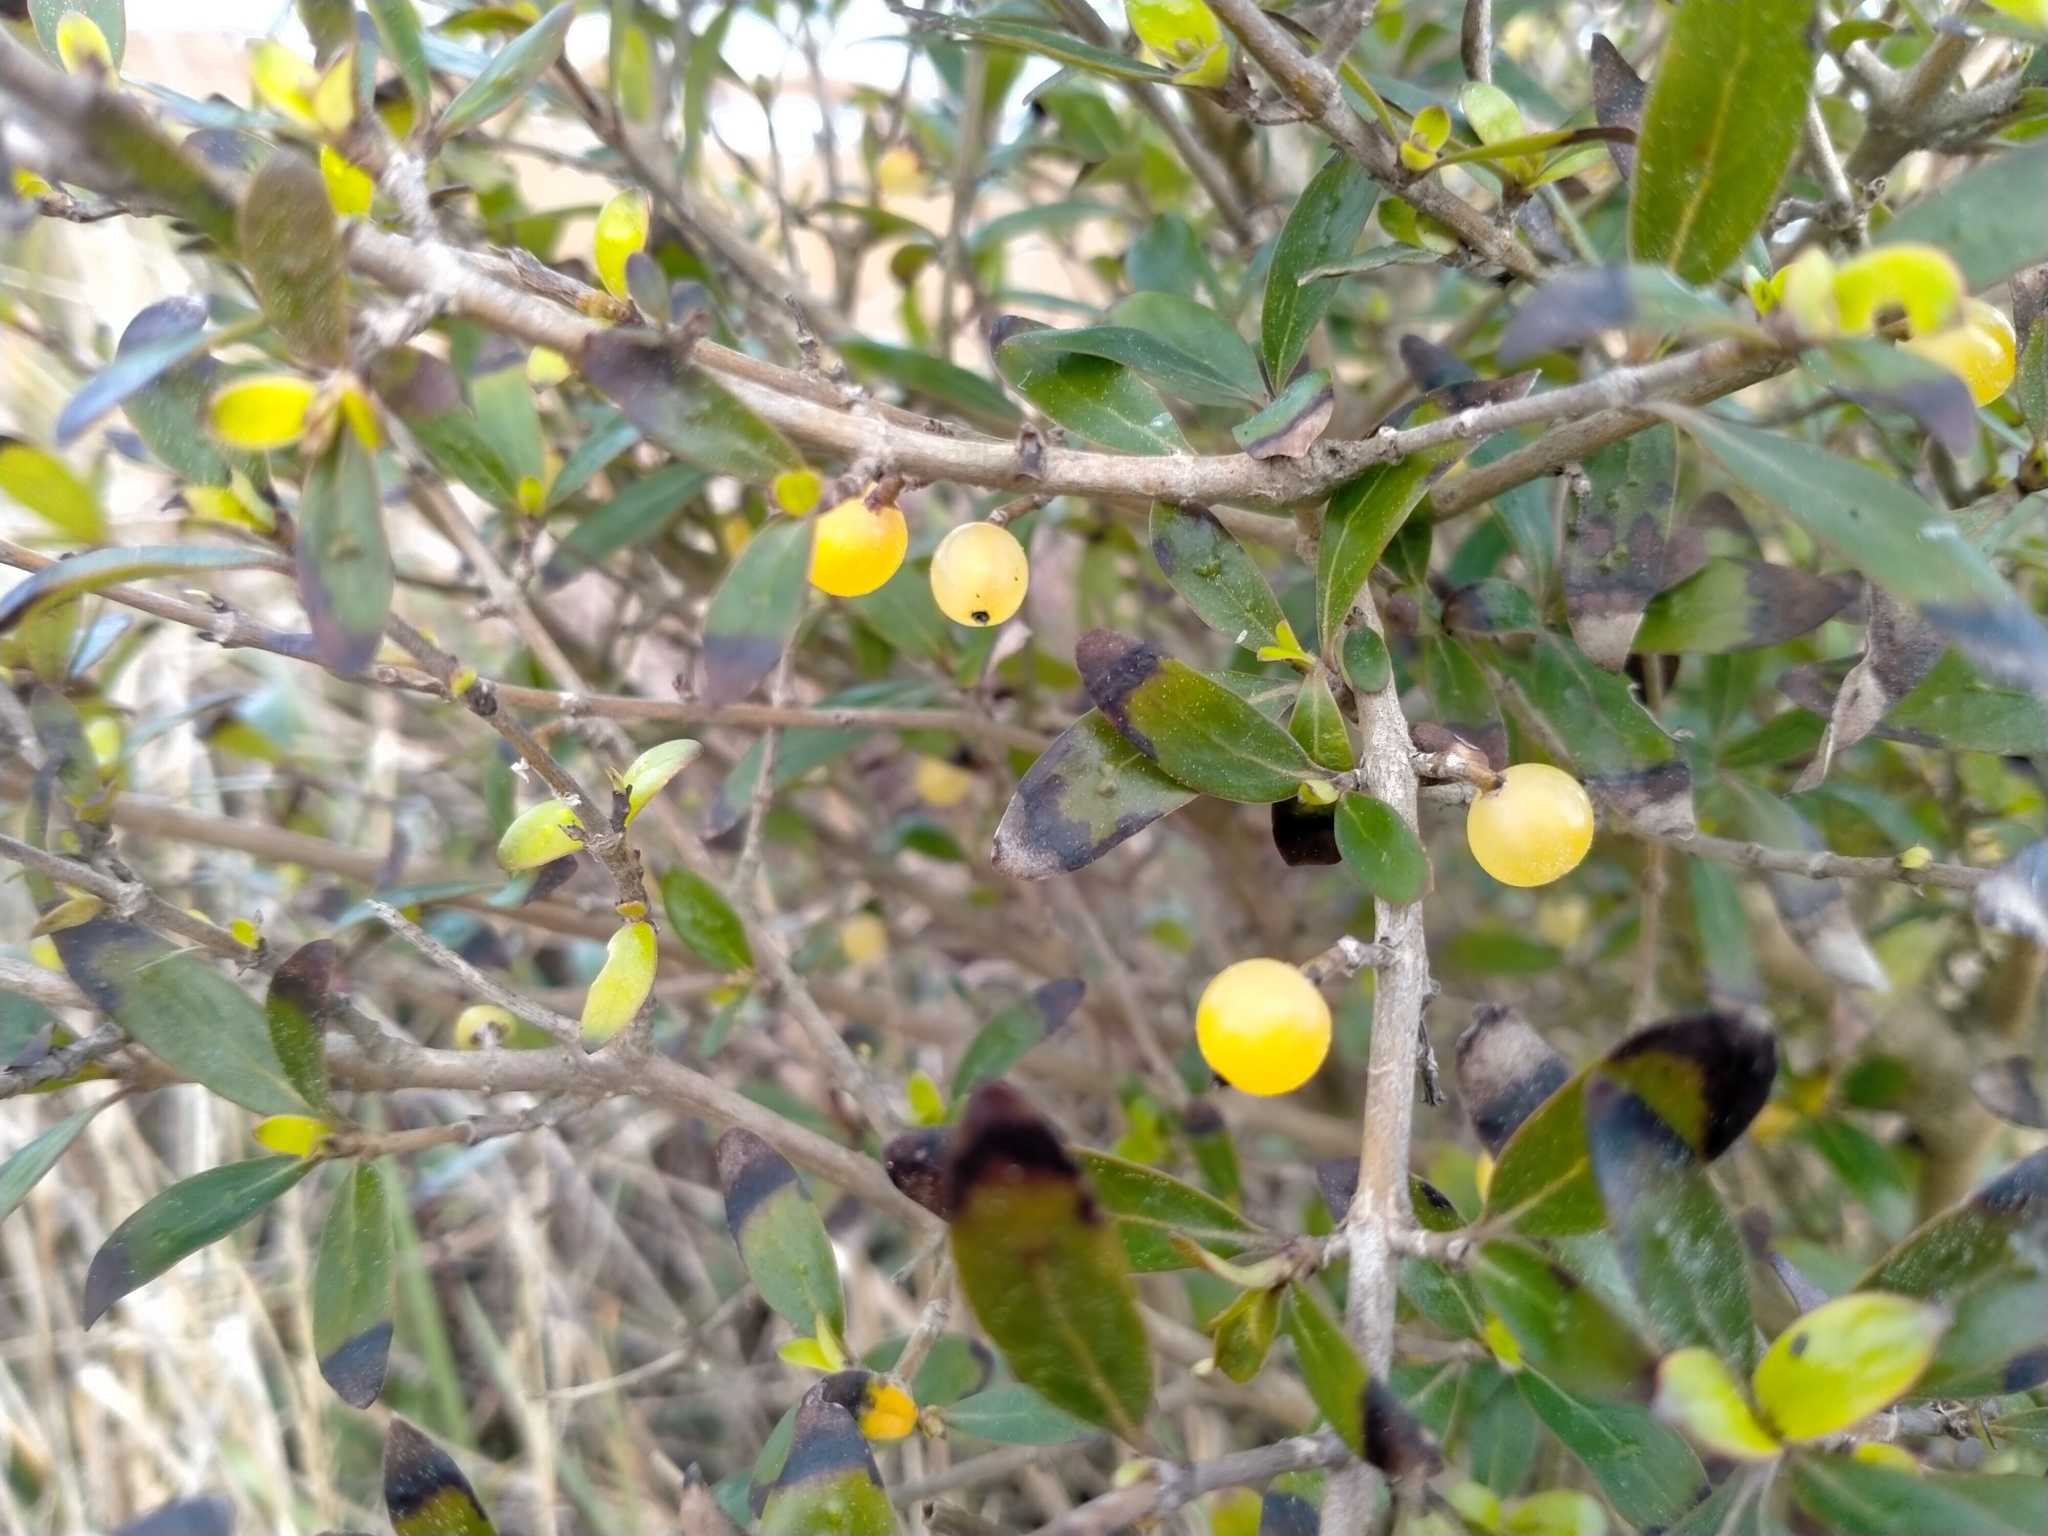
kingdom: Plantae
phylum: Tracheophyta
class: Magnoliopsida
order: Gentianales
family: Rubiaceae
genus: Coprosma
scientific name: Coprosma cunninghamii
